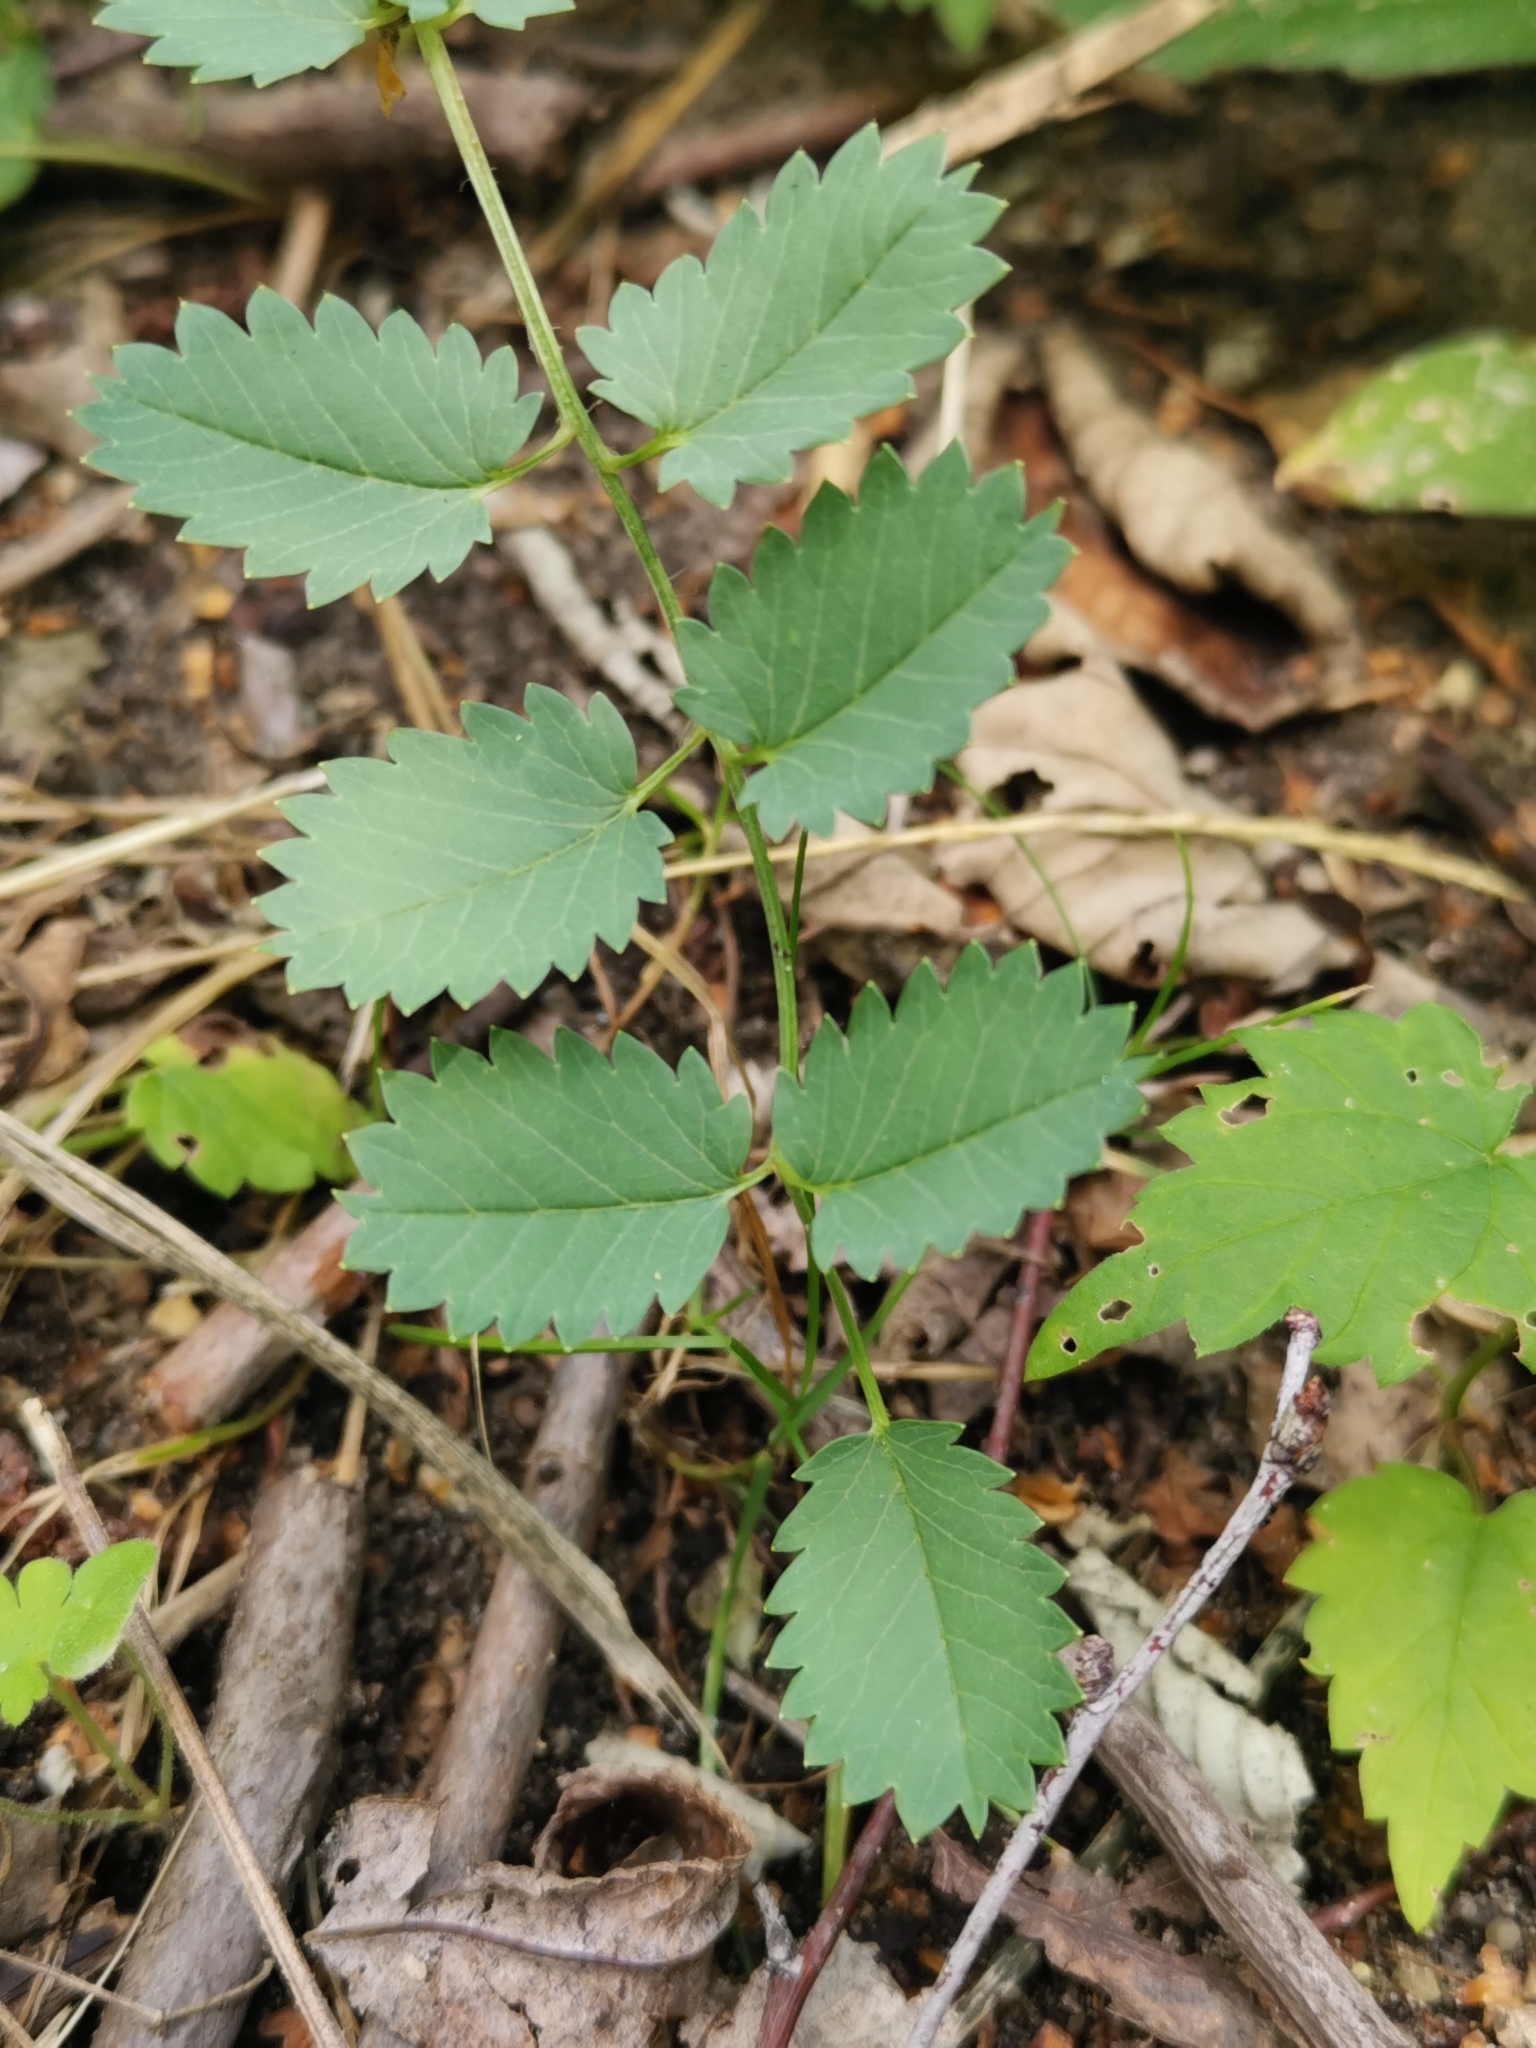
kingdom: Plantae
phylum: Tracheophyta
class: Magnoliopsida
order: Rosales
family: Rosaceae
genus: Poterium
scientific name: Poterium sanguisorba
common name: Salad burnet
